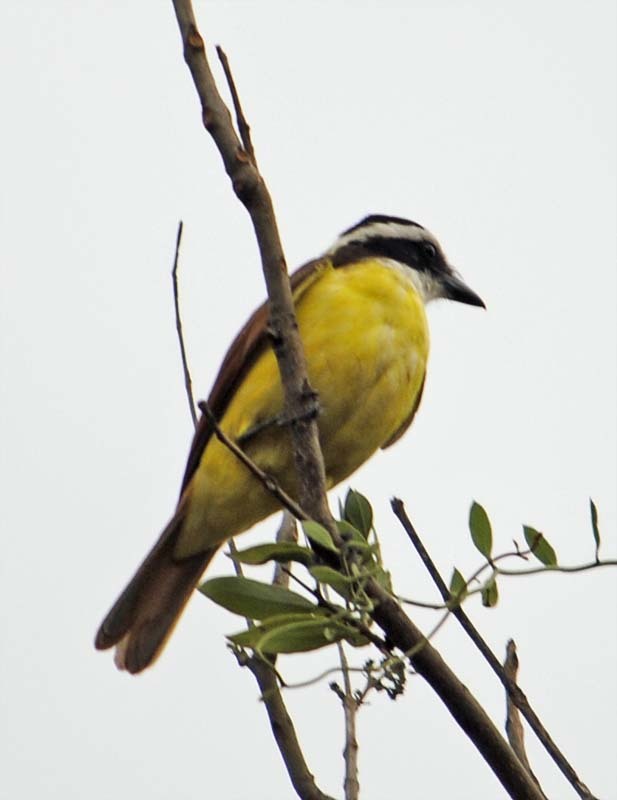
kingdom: Animalia
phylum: Chordata
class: Aves
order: Passeriformes
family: Tyrannidae
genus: Pitangus
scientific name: Pitangus sulphuratus
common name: Great kiskadee
